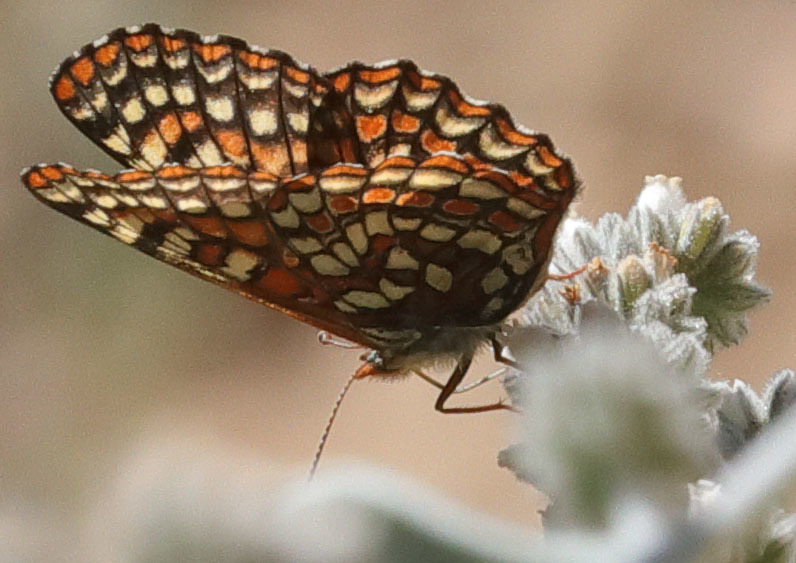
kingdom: Animalia
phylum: Arthropoda
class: Insecta
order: Lepidoptera
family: Nymphalidae
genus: Occidryas
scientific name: Occidryas editha
